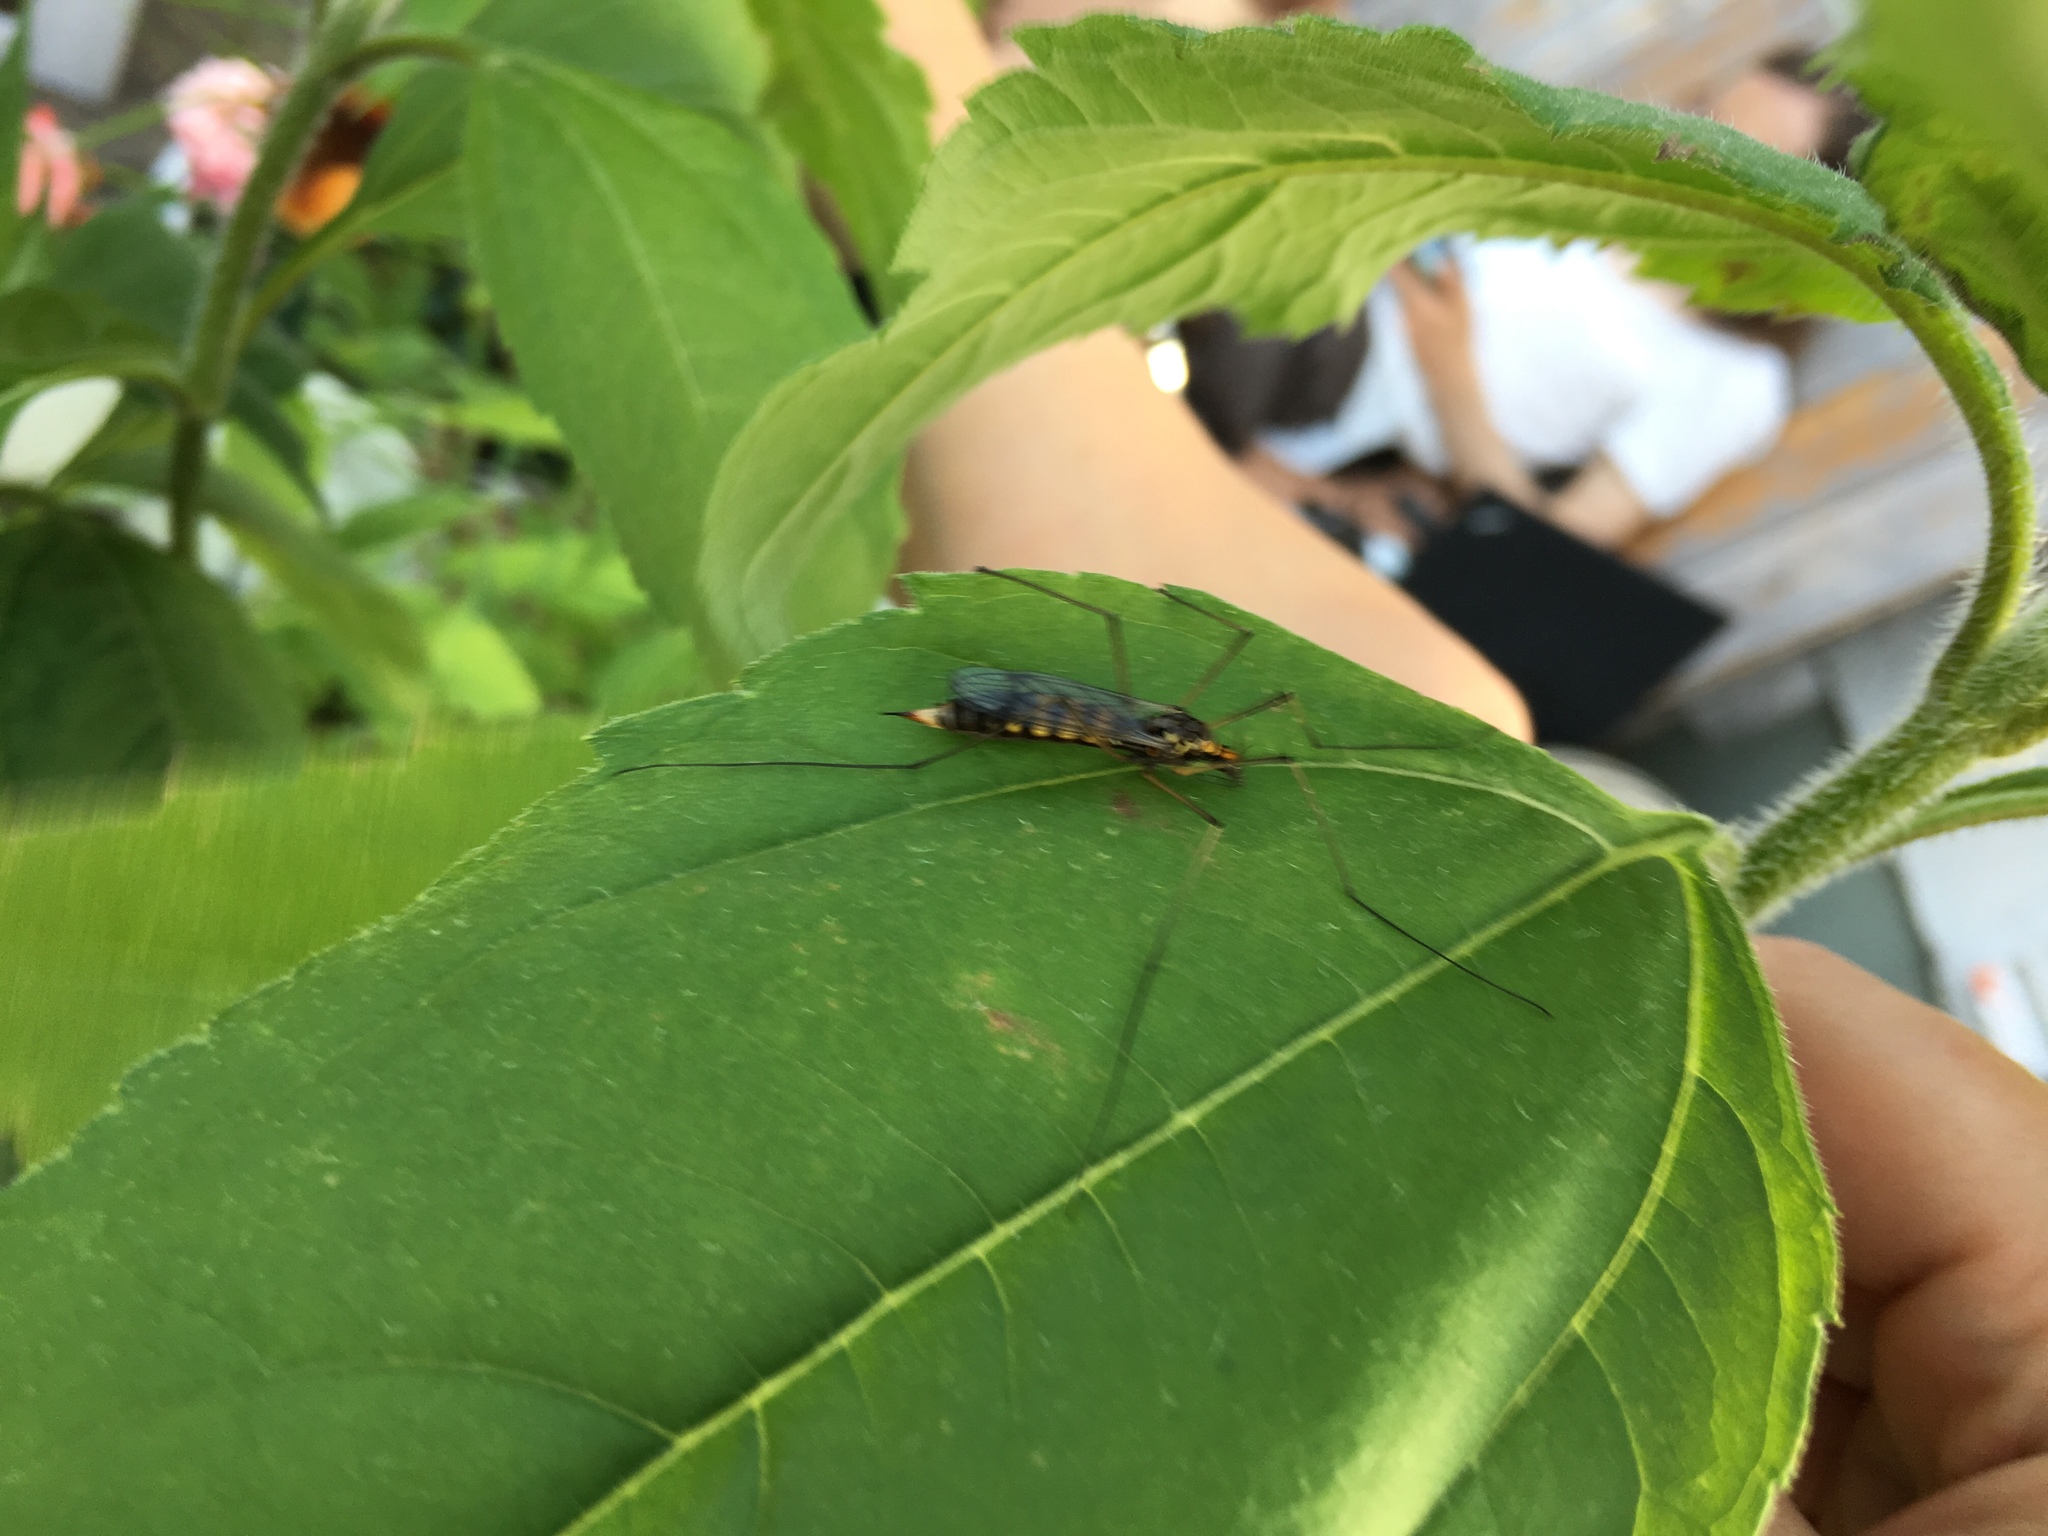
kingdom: Animalia
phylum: Arthropoda
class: Insecta
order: Diptera
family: Tipulidae
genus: Nephrotoma
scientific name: Nephrotoma crocata
